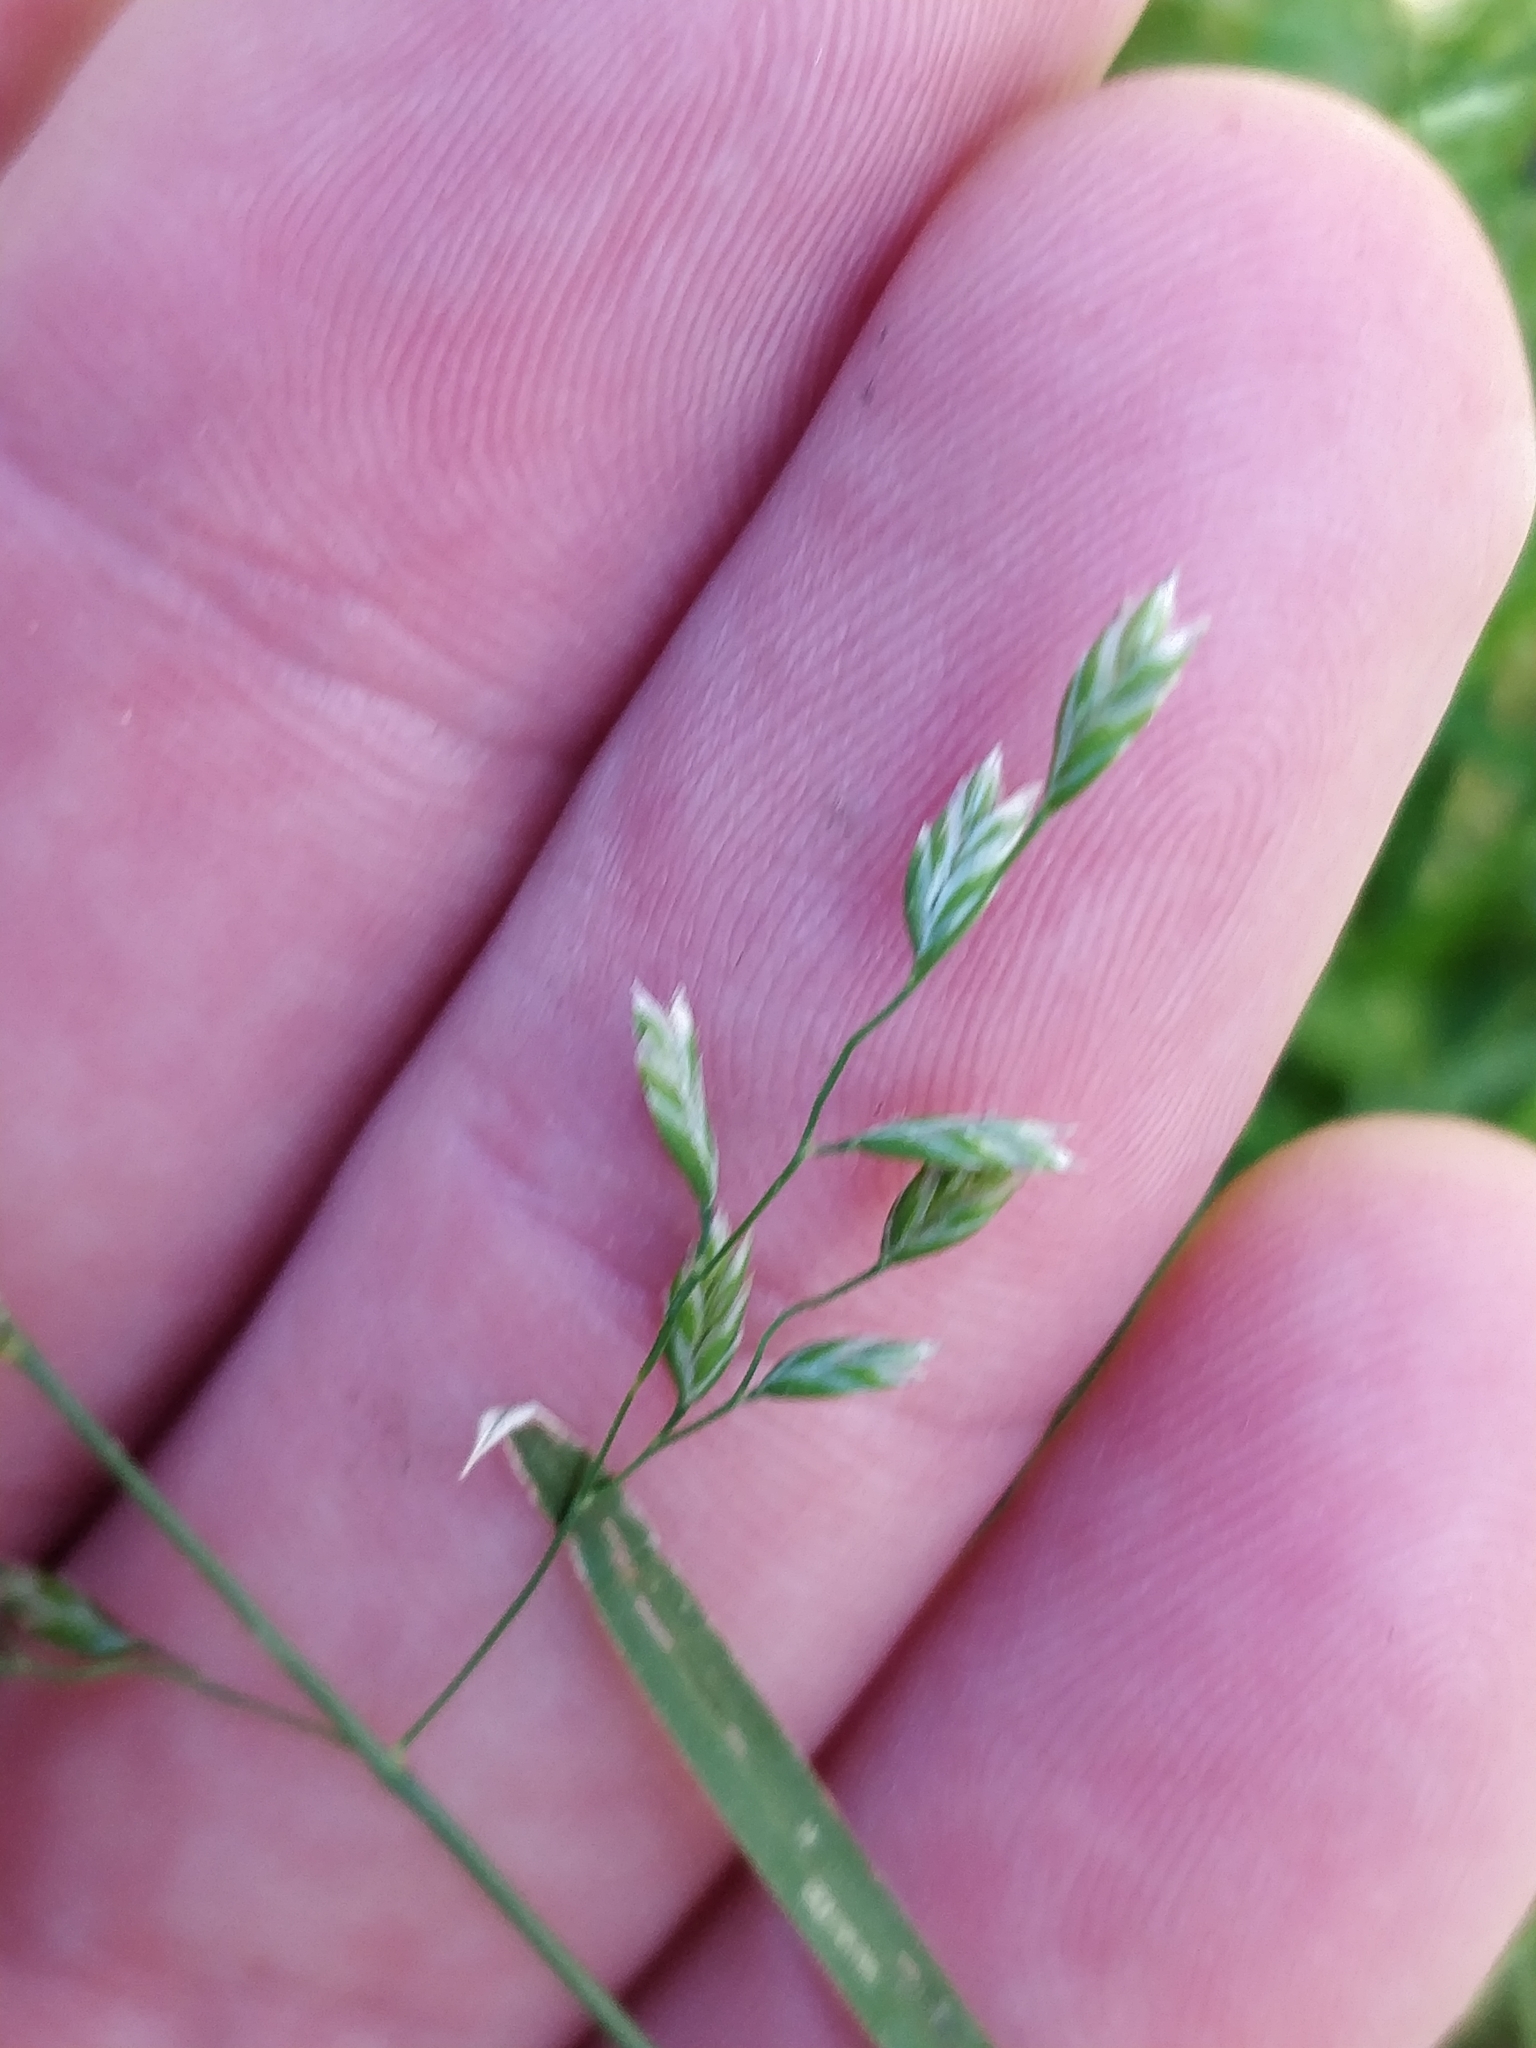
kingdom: Plantae
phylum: Tracheophyta
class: Liliopsida
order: Poales
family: Poaceae
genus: Poa
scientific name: Poa annua
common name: Annual bluegrass
